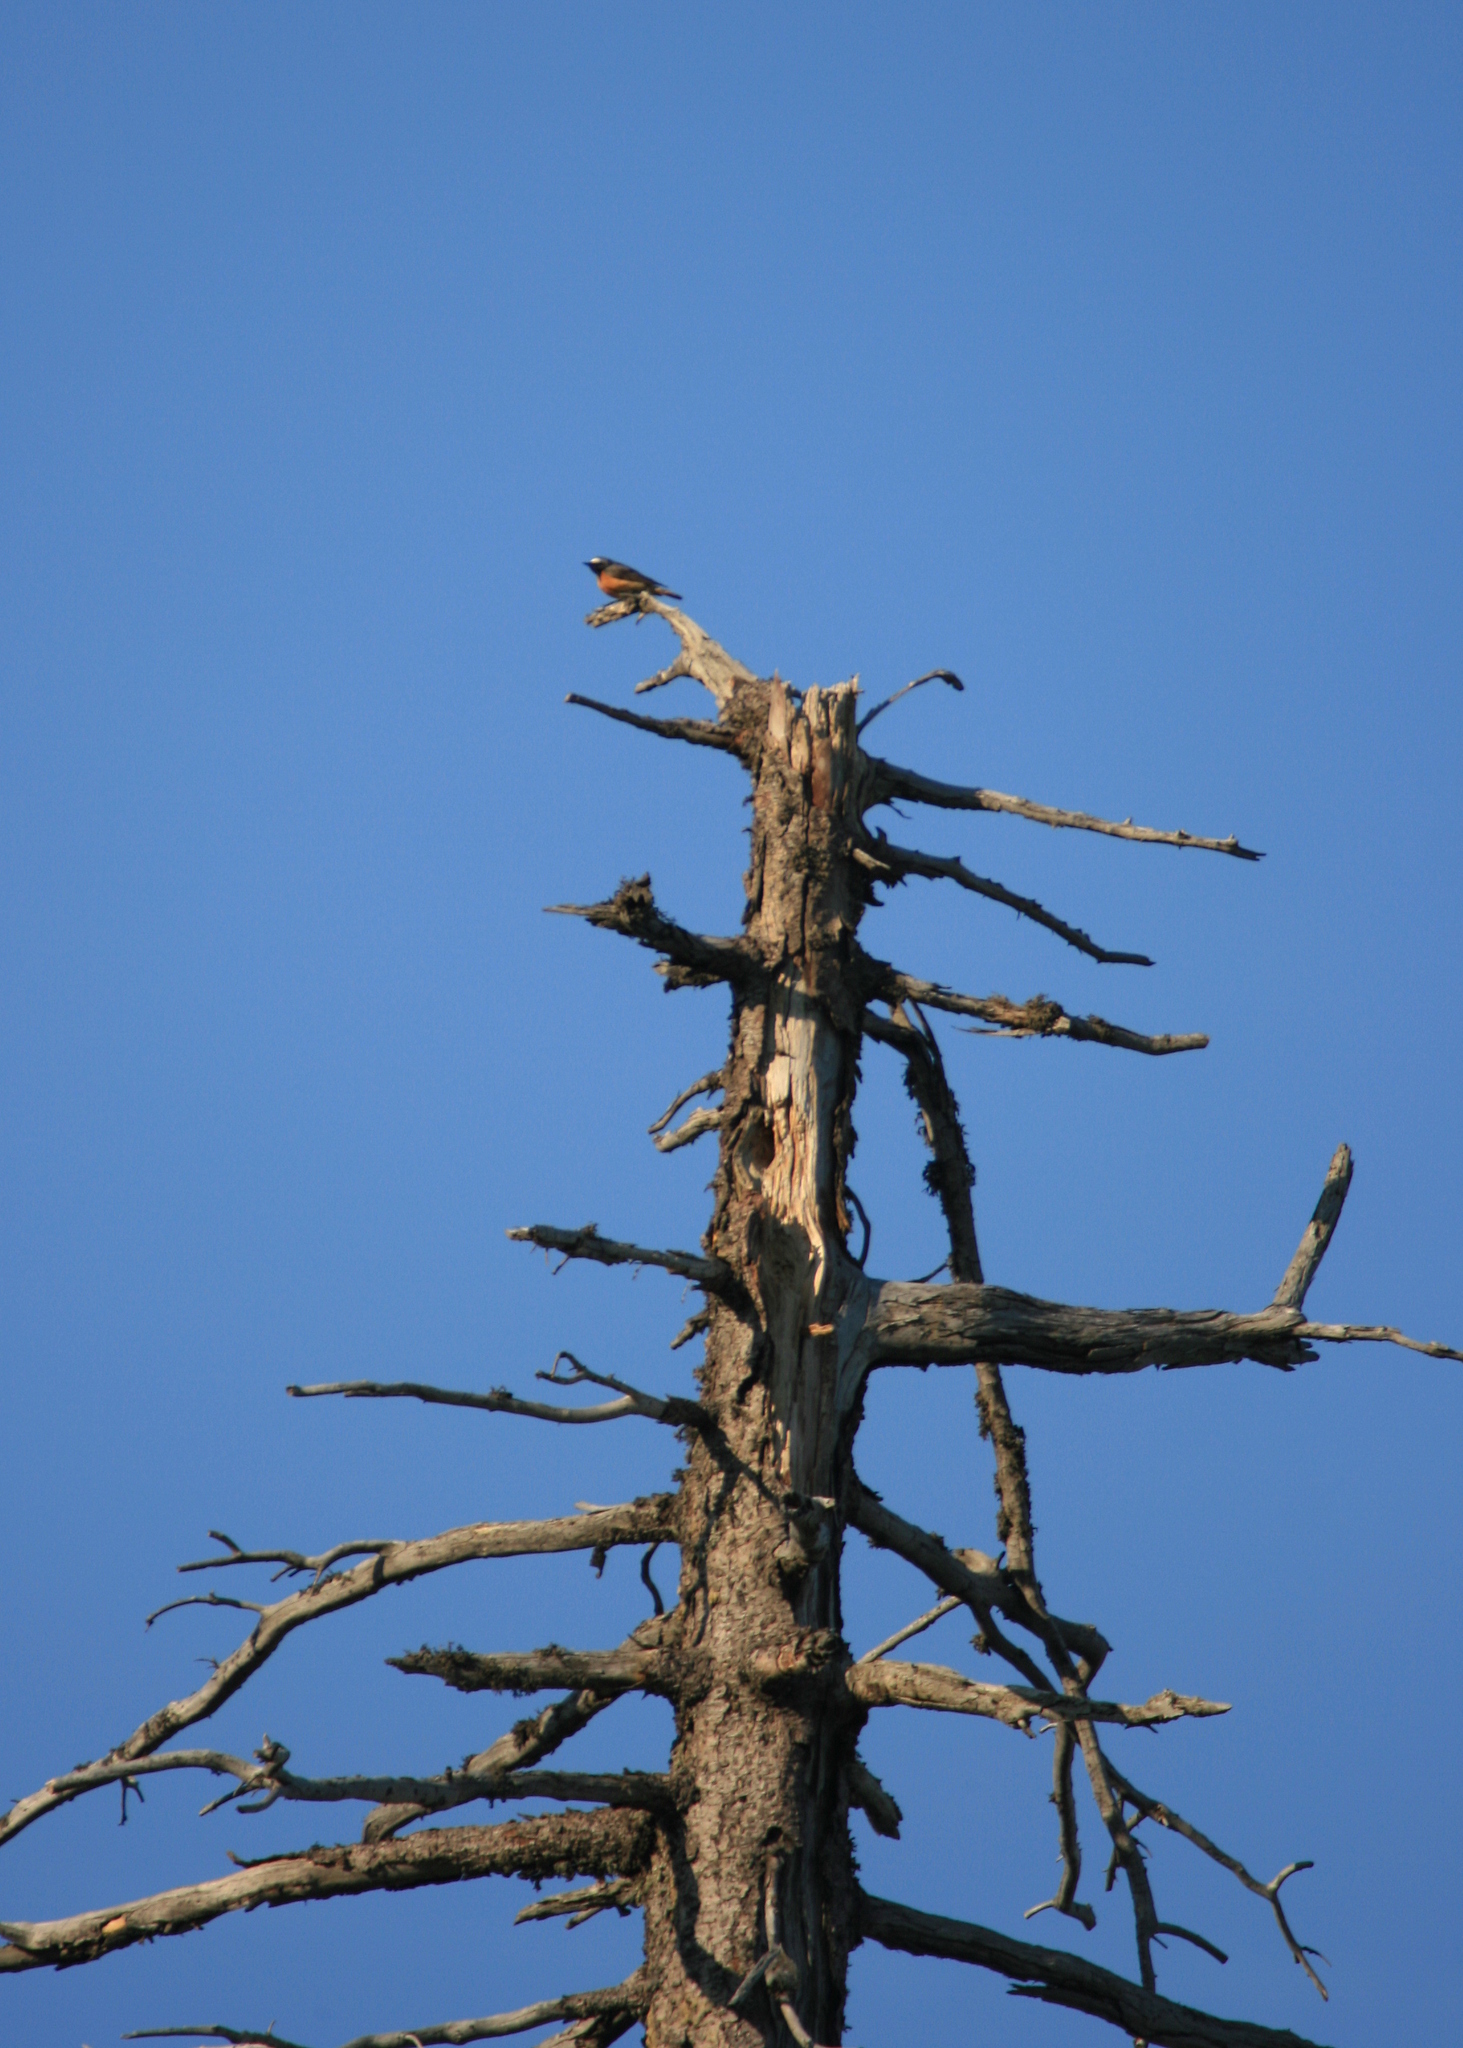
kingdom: Animalia
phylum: Chordata
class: Aves
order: Passeriformes
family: Muscicapidae
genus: Phoenicurus
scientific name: Phoenicurus phoenicurus
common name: Common redstart
